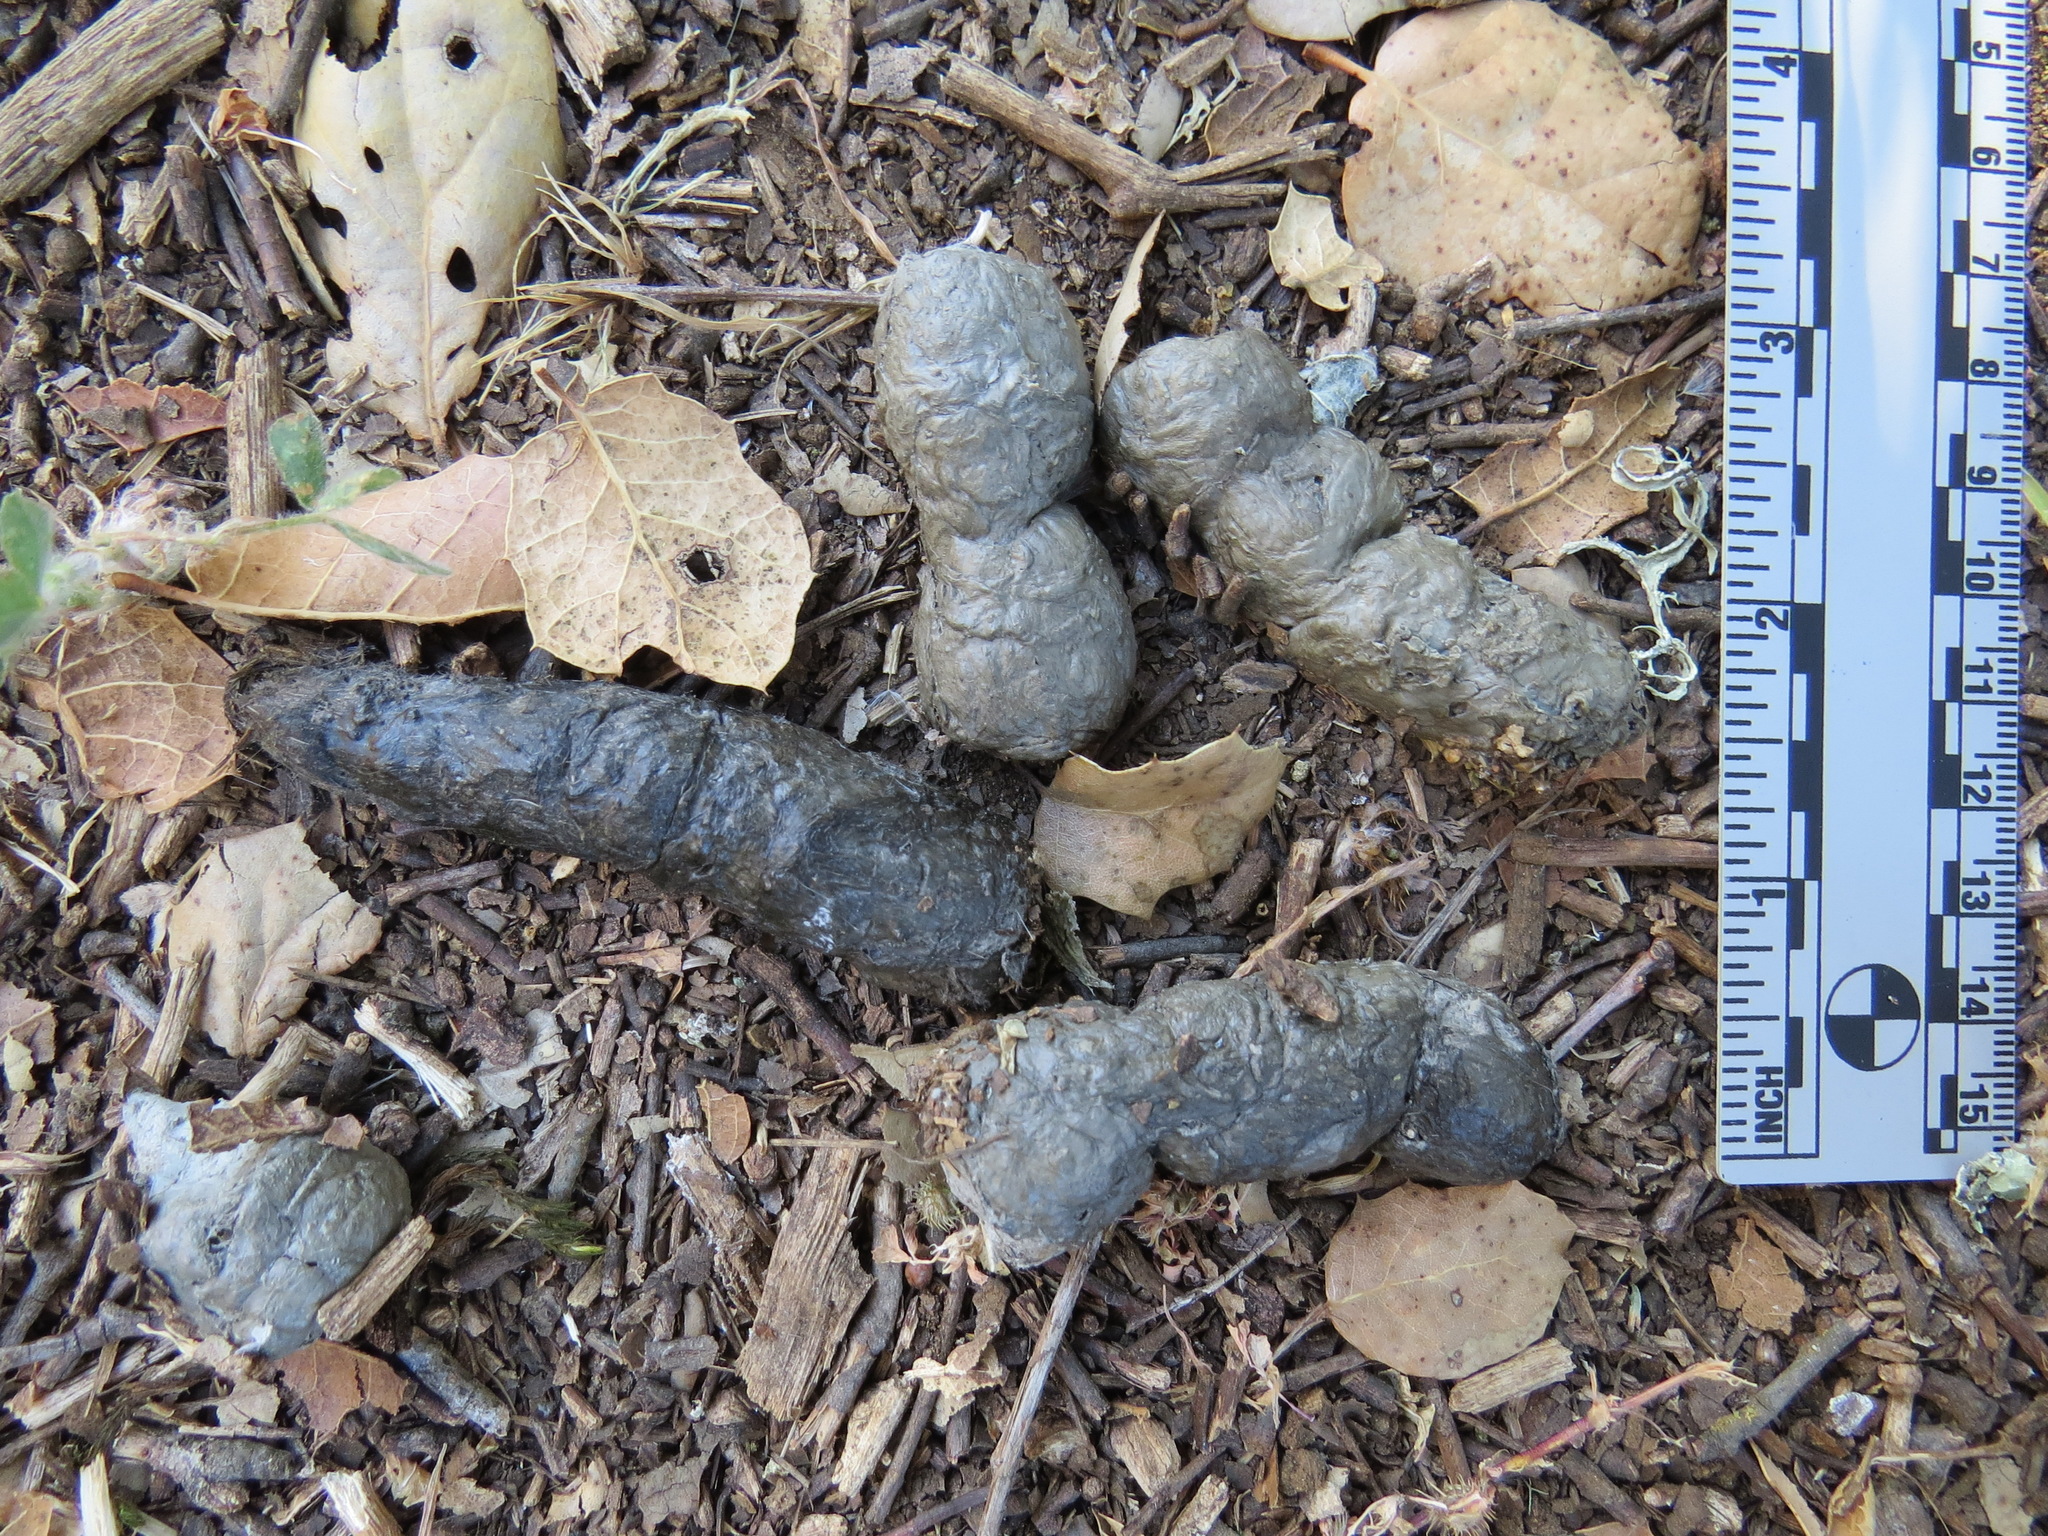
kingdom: Animalia
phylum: Chordata
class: Mammalia
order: Carnivora
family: Felidae
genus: Lynx
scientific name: Lynx rufus
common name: Bobcat
